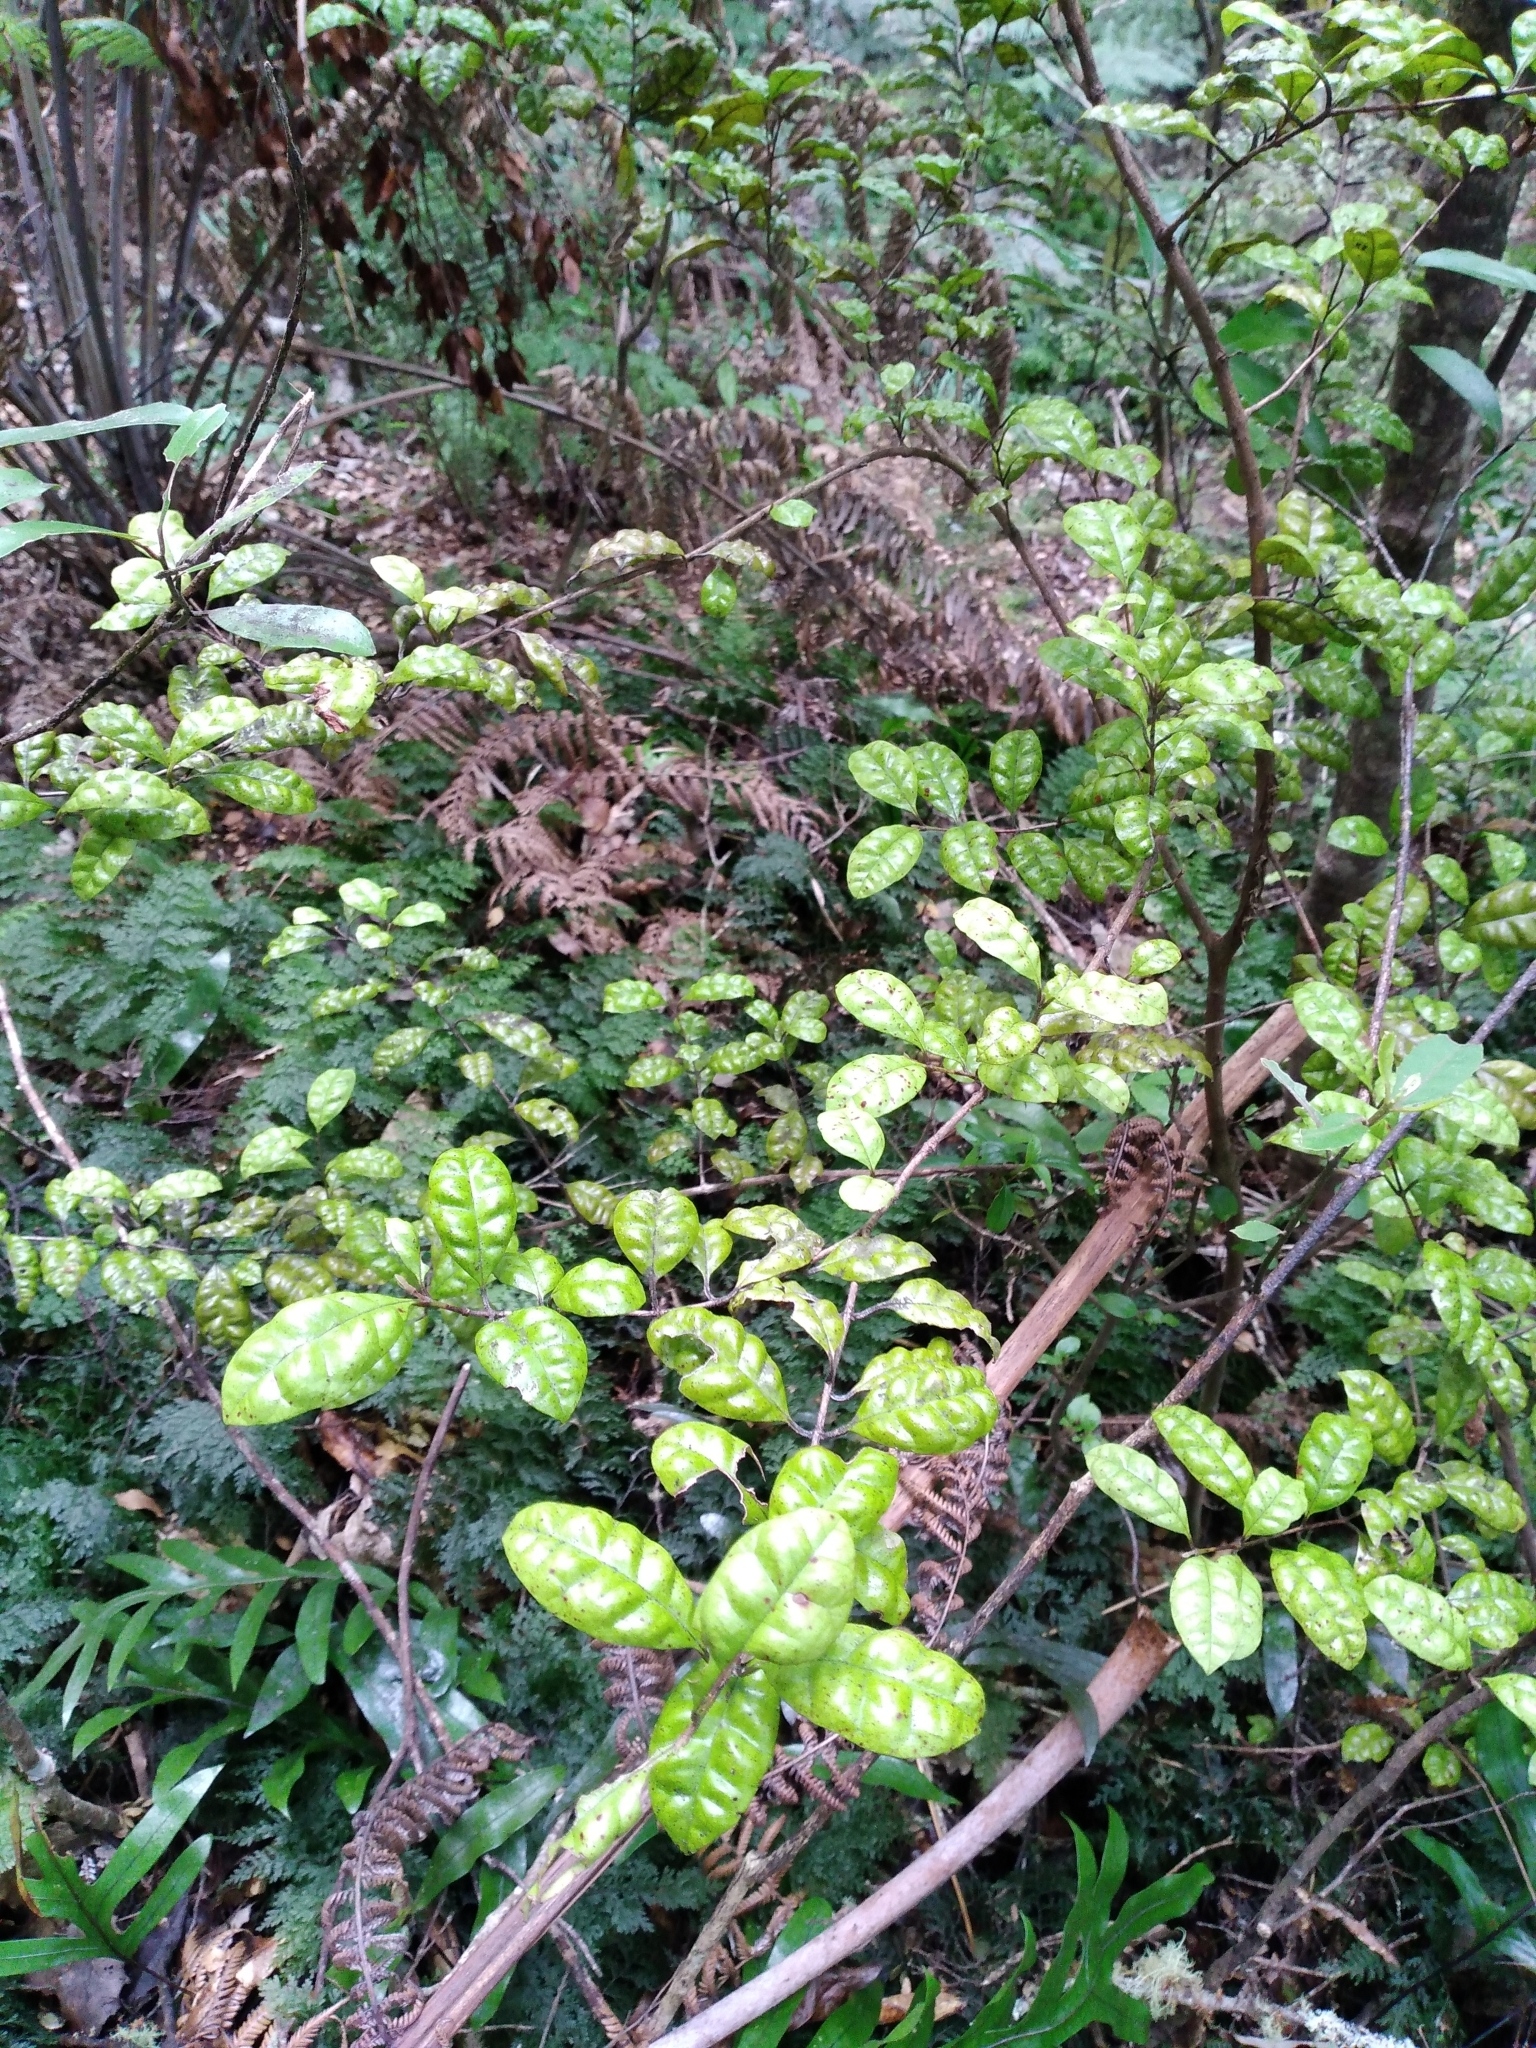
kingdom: Plantae
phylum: Tracheophyta
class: Magnoliopsida
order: Myrtales
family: Myrtaceae
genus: Lophomyrtus
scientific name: Lophomyrtus bullata
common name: Rama rama
